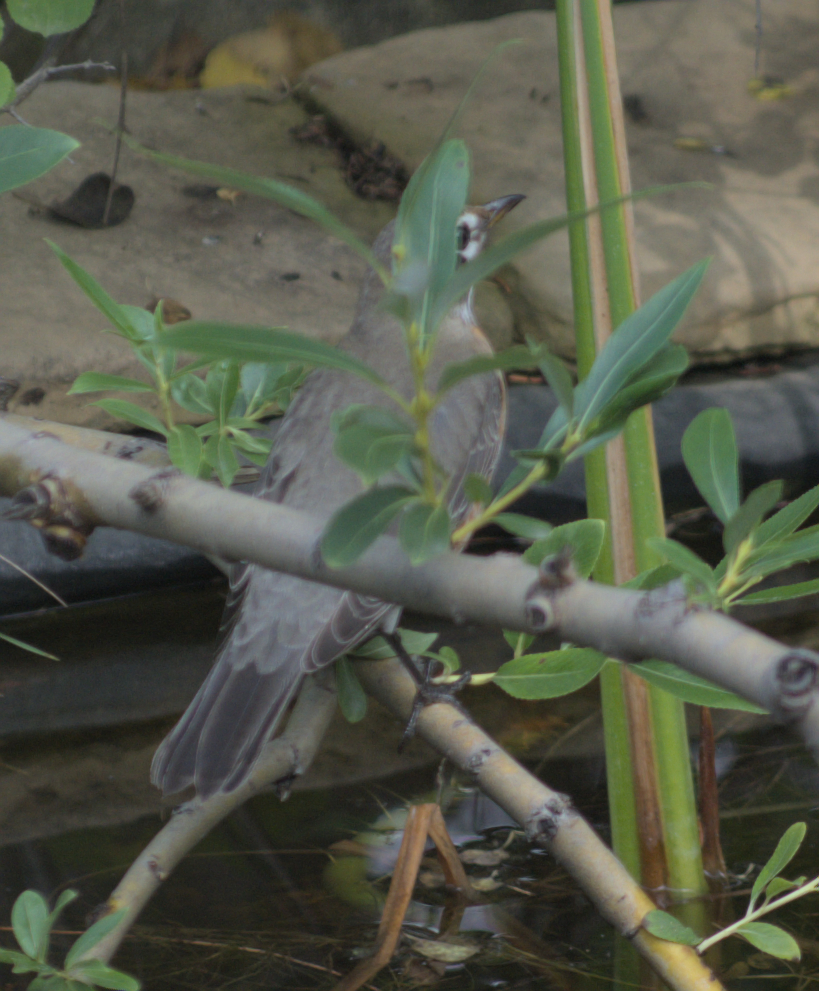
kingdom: Animalia
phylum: Chordata
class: Aves
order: Passeriformes
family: Turdidae
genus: Turdus
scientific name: Turdus migratorius
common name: American robin
